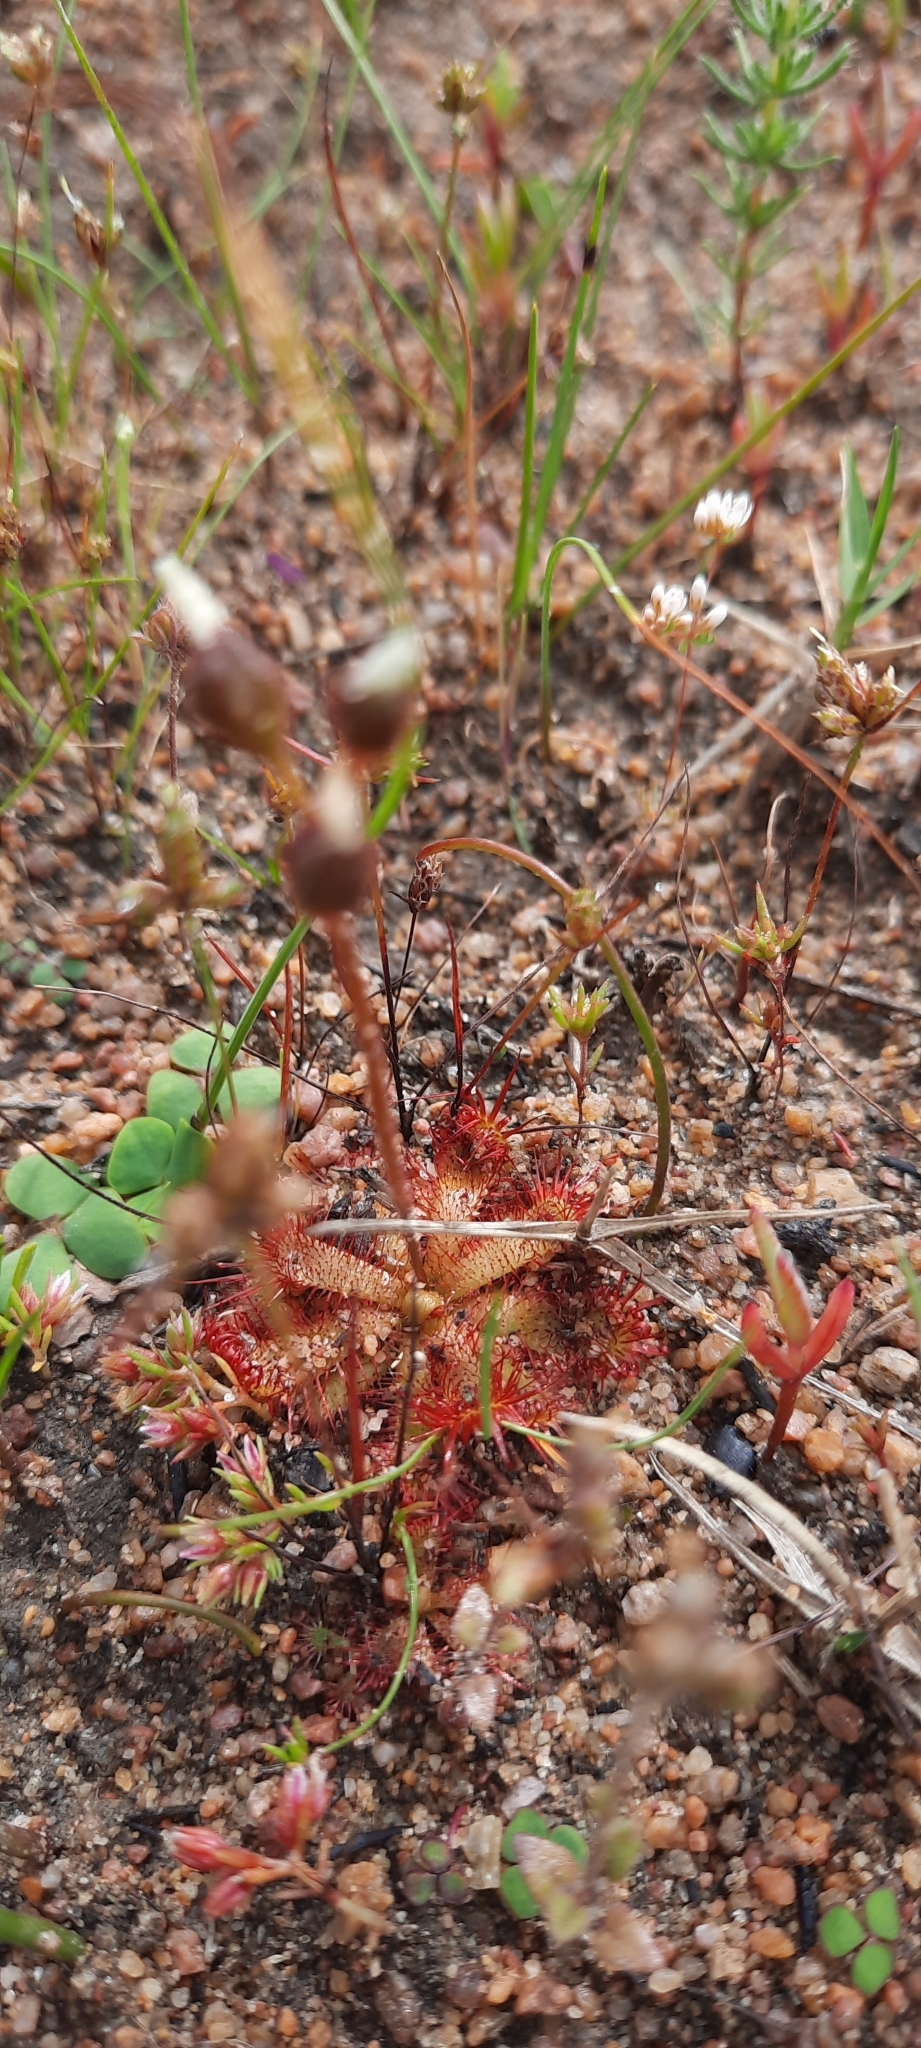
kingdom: Plantae
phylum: Tracheophyta
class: Magnoliopsida
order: Caryophyllales
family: Droseraceae
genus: Drosera
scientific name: Drosera trinervia
